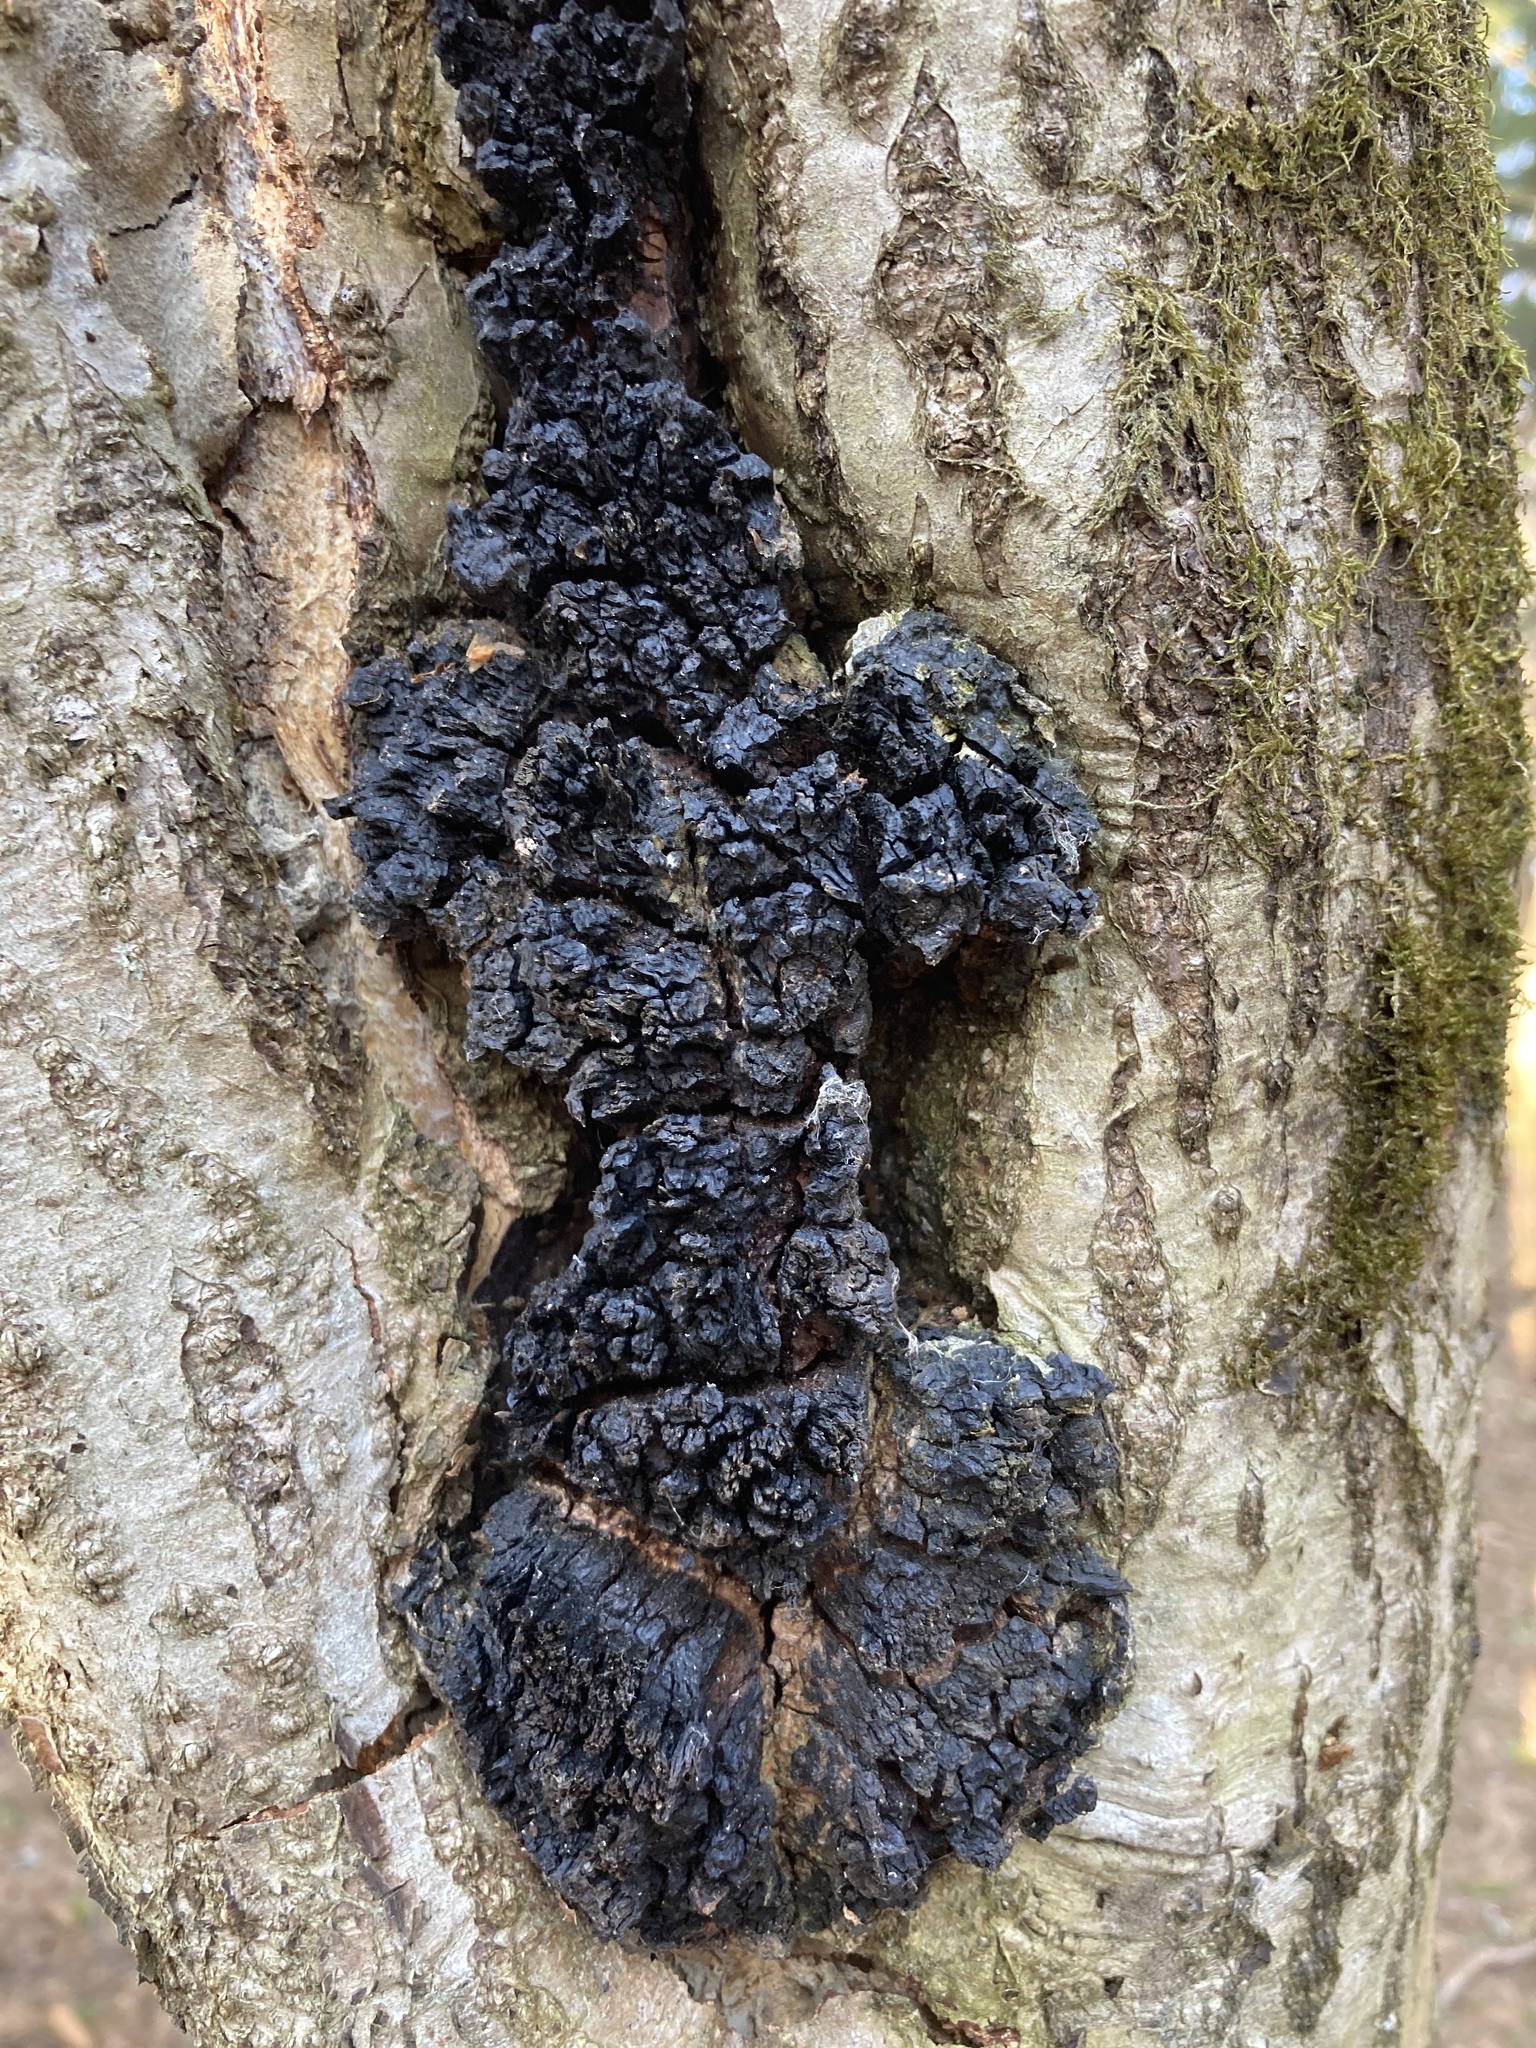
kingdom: Fungi
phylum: Basidiomycota
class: Agaricomycetes
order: Hymenochaetales
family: Hymenochaetaceae
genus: Inonotus
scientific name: Inonotus obliquus
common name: Chaga
